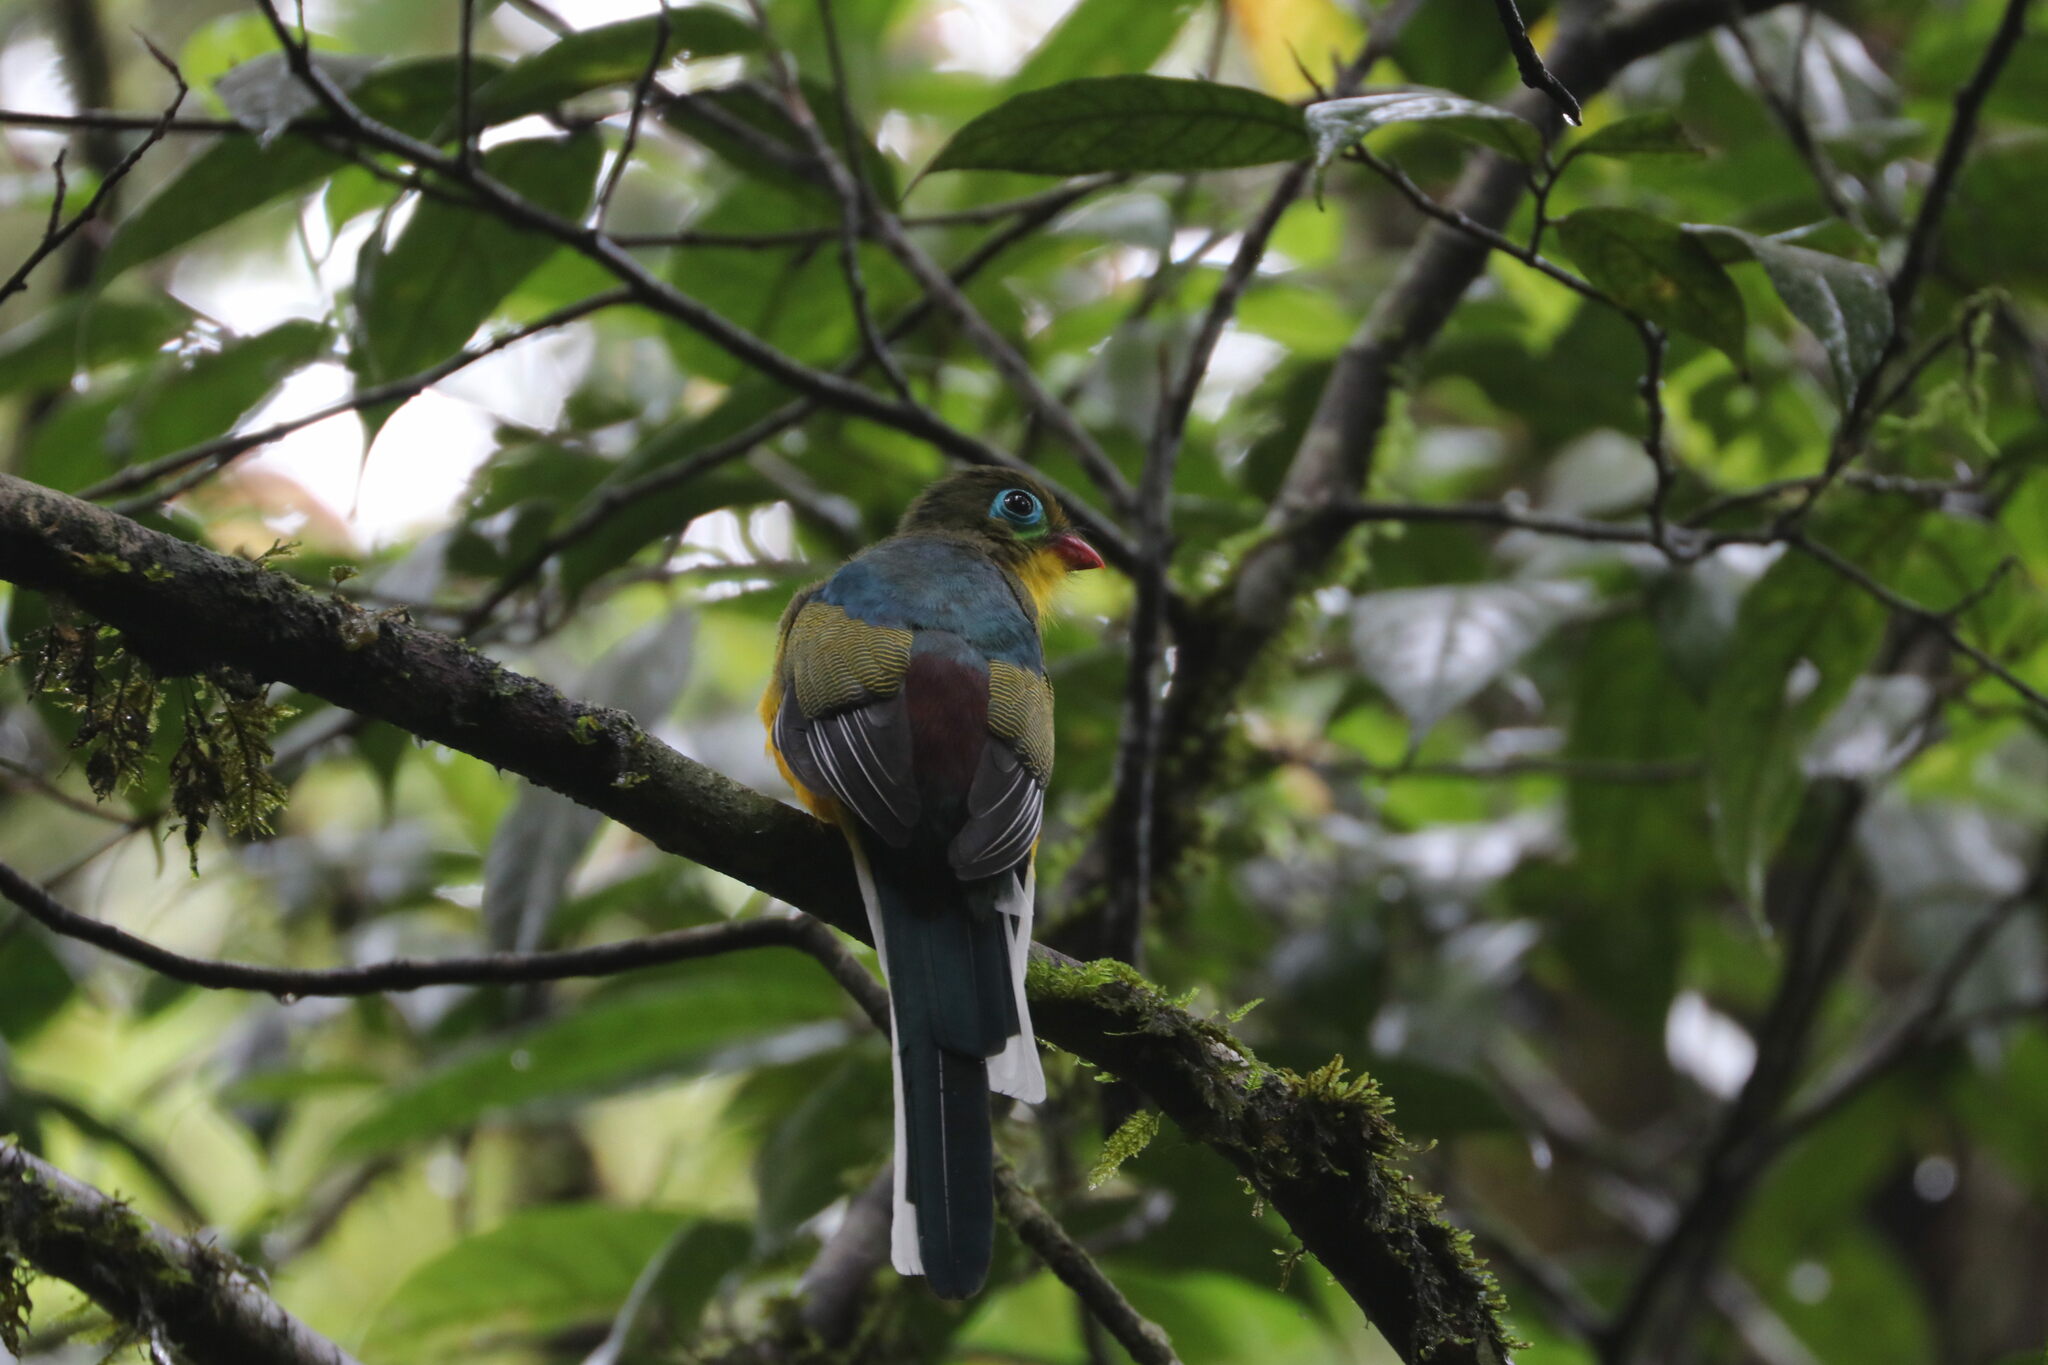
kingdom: Animalia
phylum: Chordata
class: Aves
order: Trogoniformes
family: Trogonidae
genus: Apalharpactes
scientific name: Apalharpactes mackloti
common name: Sumatran trogon
